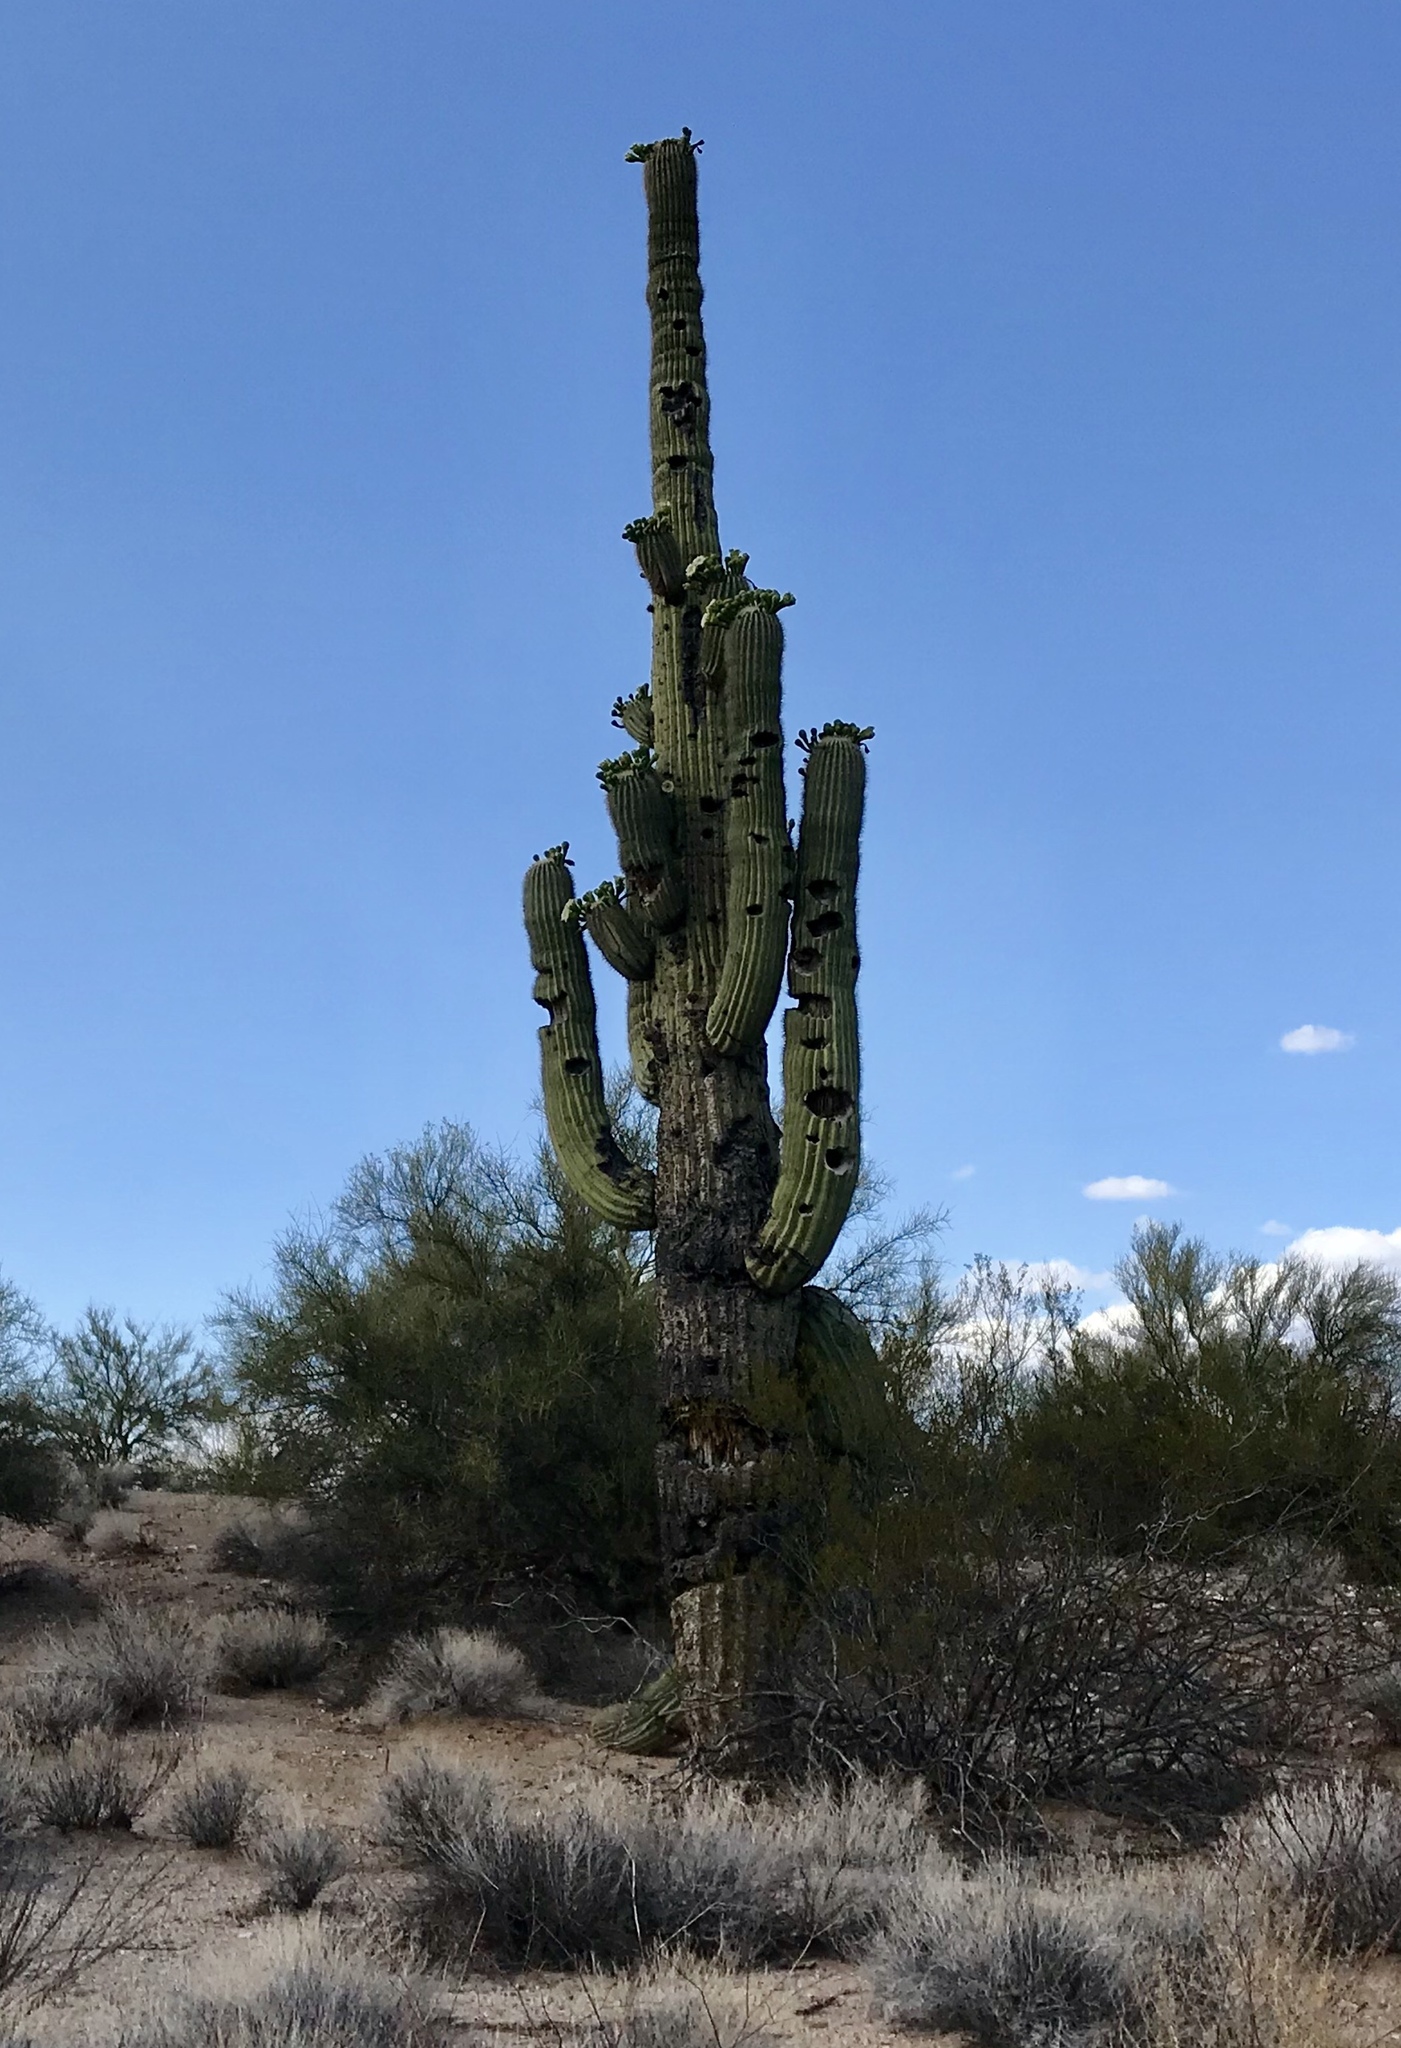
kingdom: Plantae
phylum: Tracheophyta
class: Magnoliopsida
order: Caryophyllales
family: Cactaceae
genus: Carnegiea
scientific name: Carnegiea gigantea
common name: Saguaro
